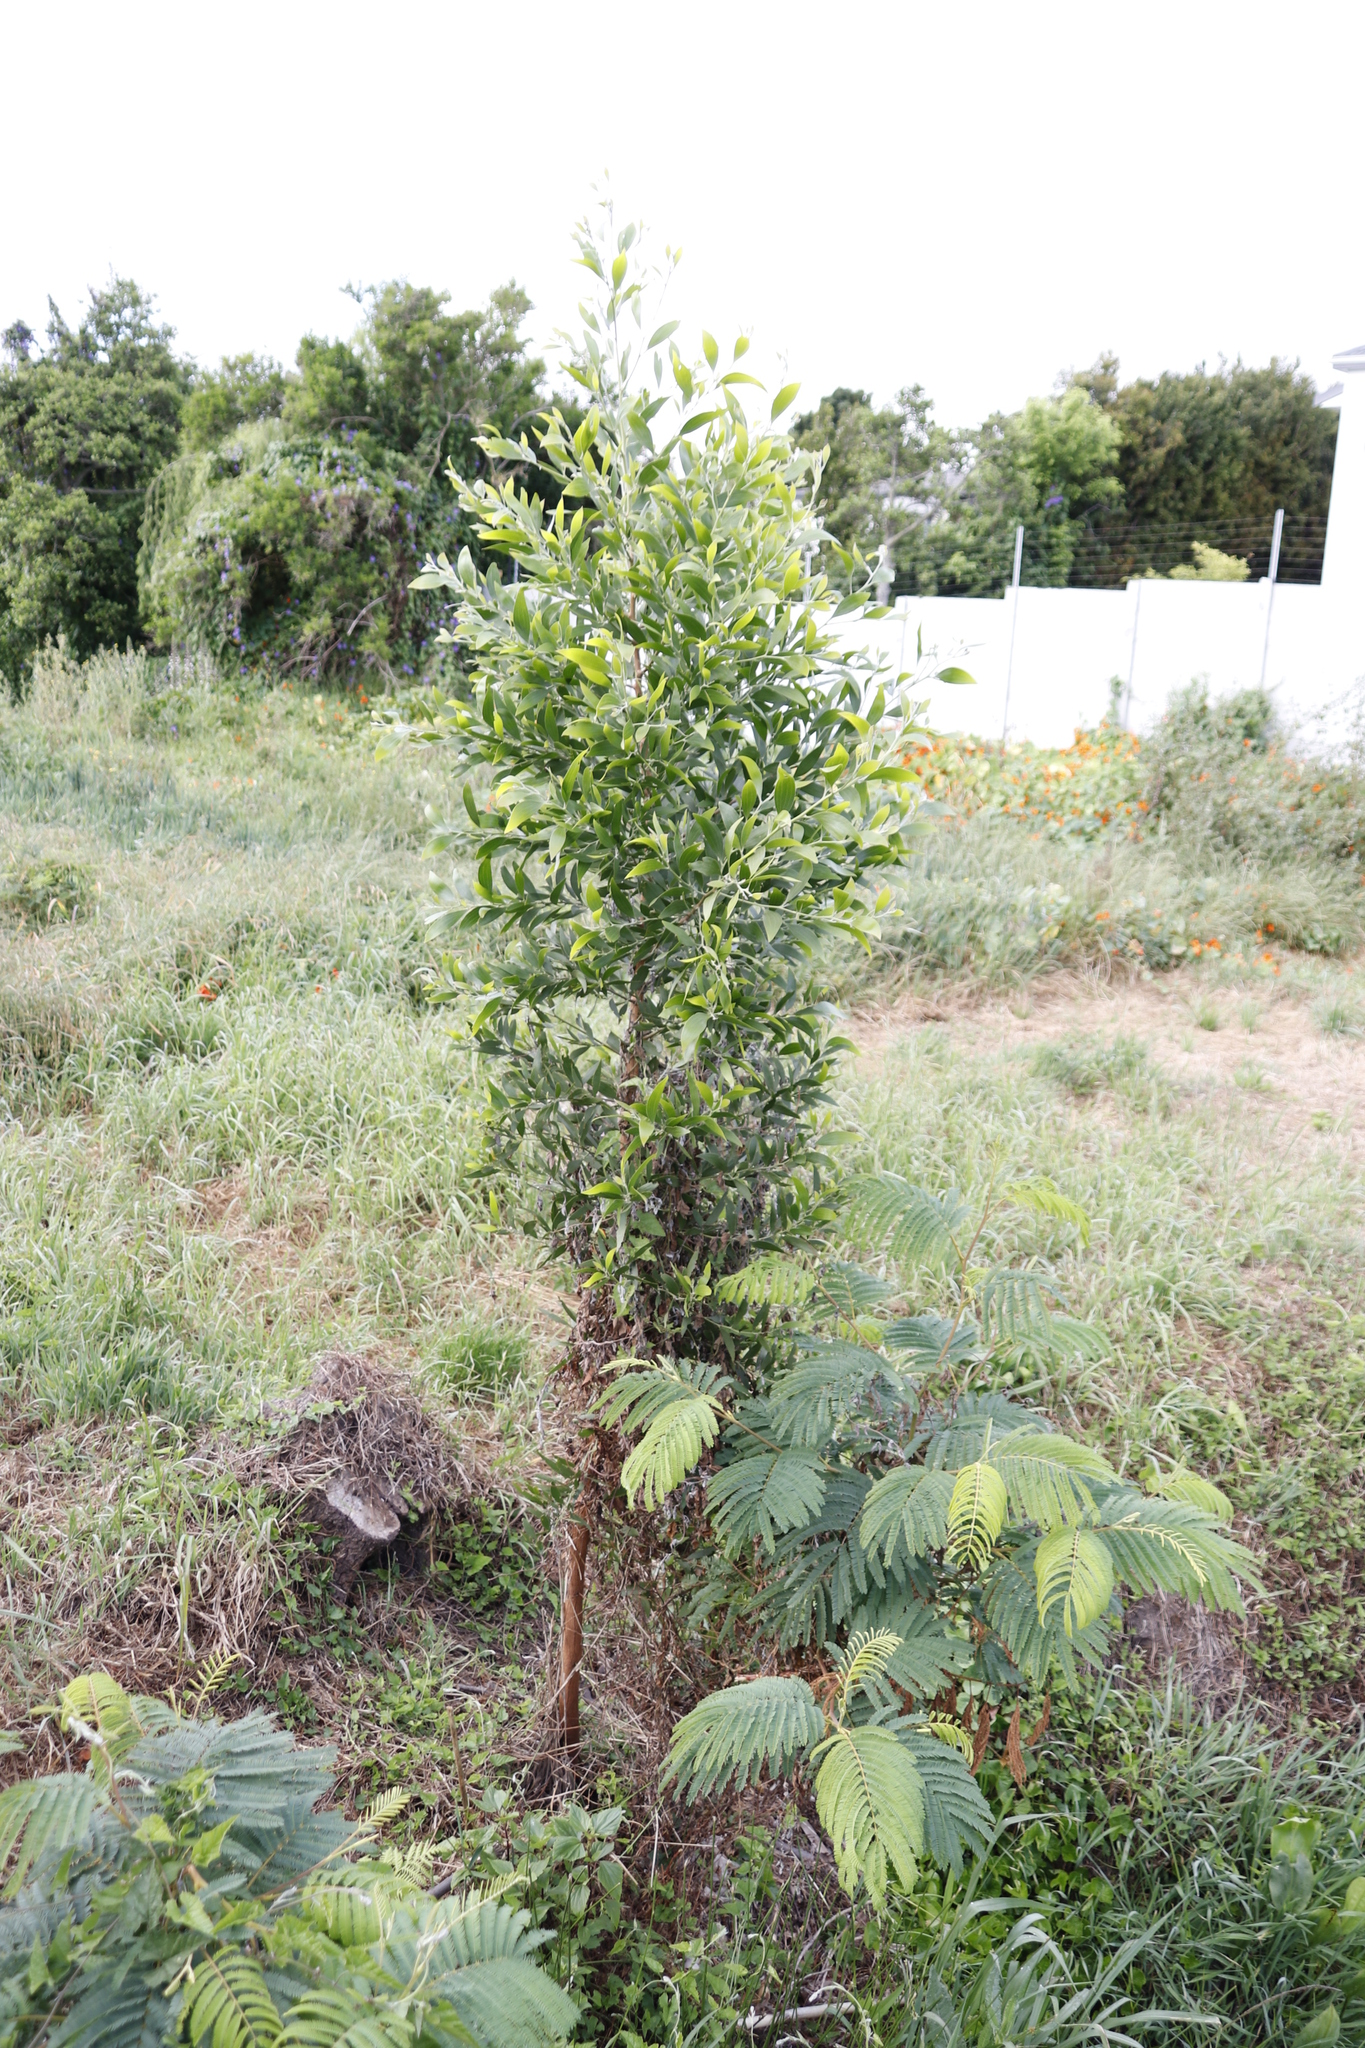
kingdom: Plantae
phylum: Tracheophyta
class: Magnoliopsida
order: Fabales
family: Fabaceae
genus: Acacia
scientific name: Acacia melanoxylon
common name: Blackwood
